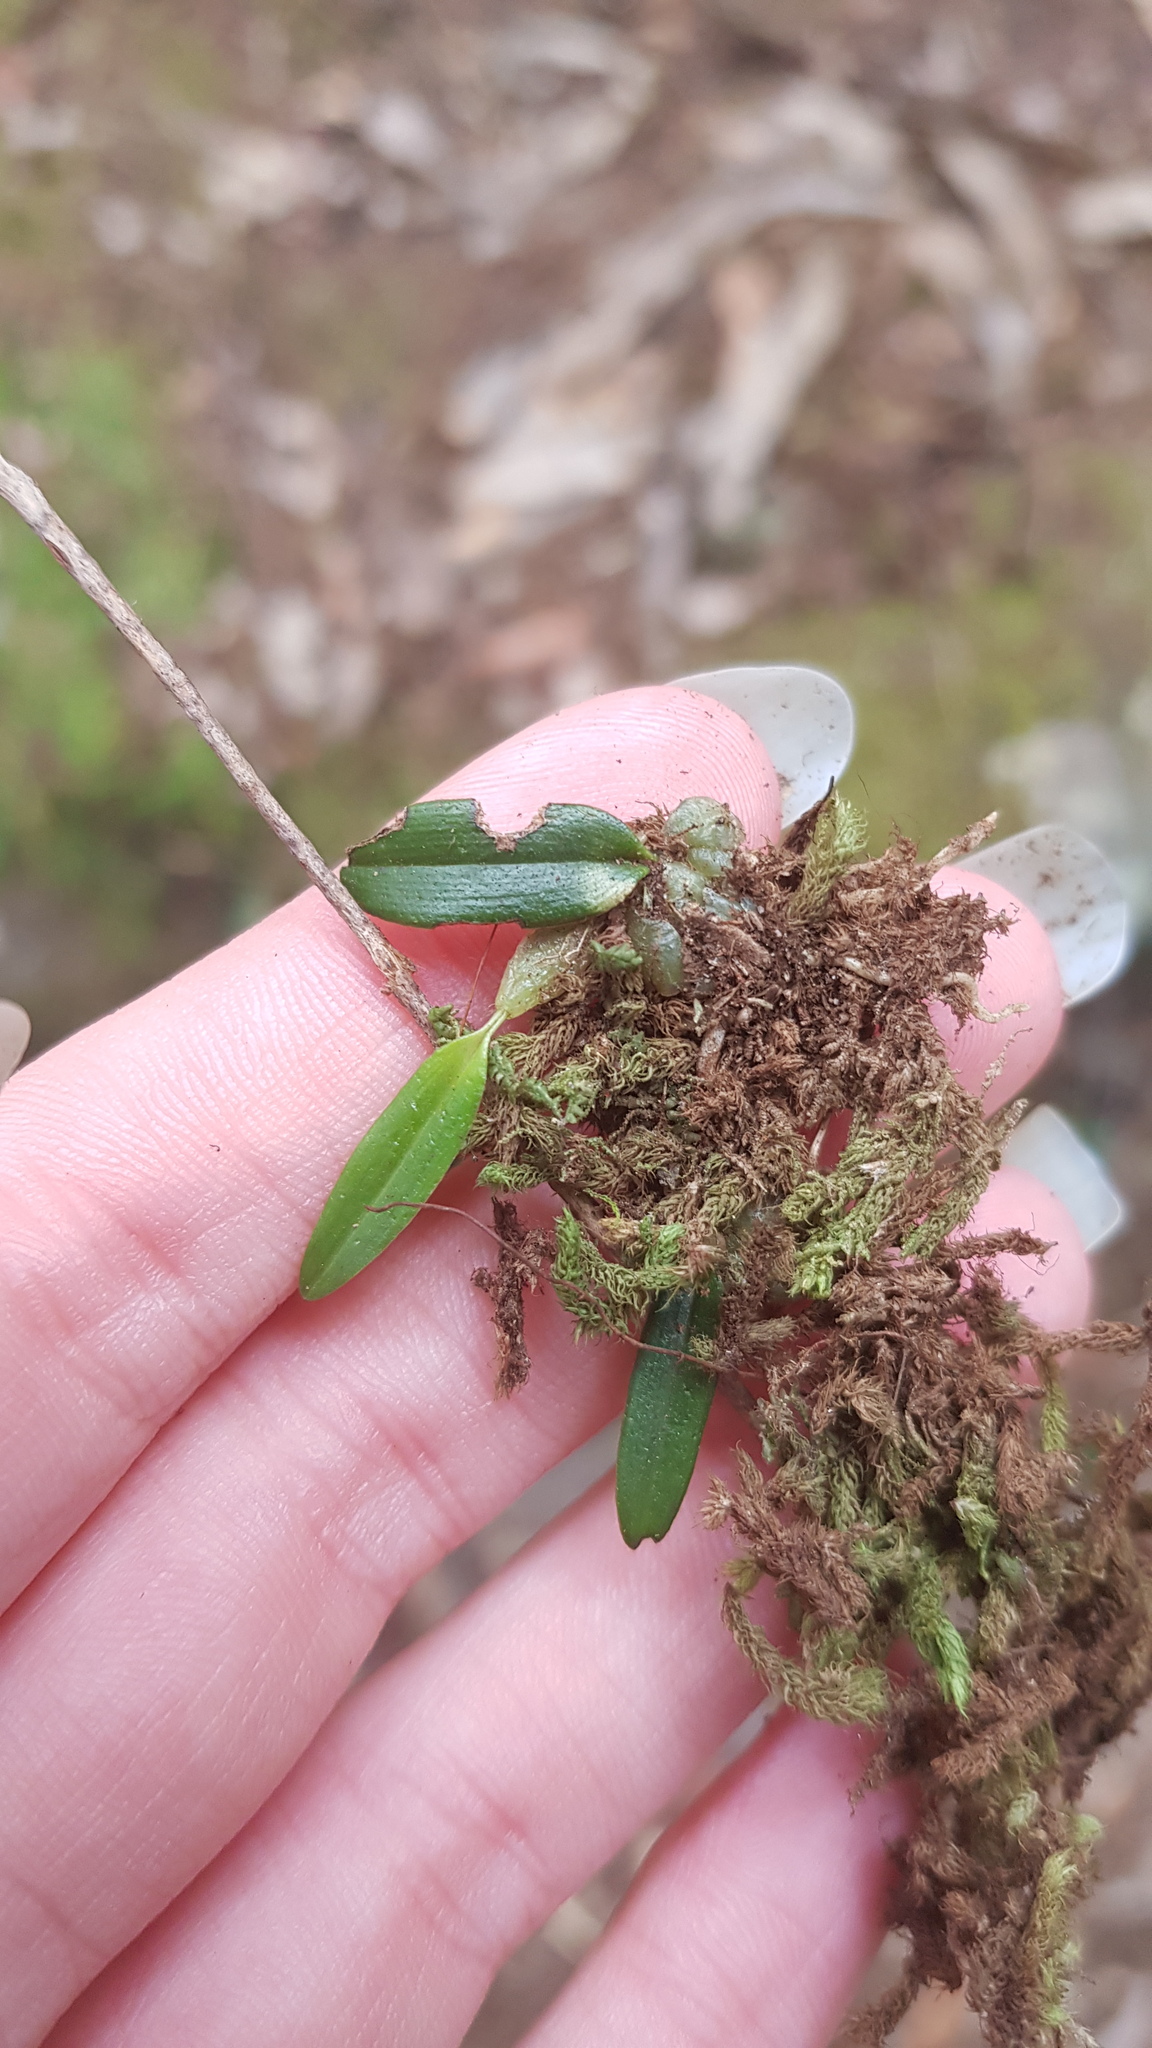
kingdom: Plantae
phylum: Tracheophyta
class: Liliopsida
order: Asparagales
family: Orchidaceae
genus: Bulbophyllum
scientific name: Bulbophyllum exiguum
